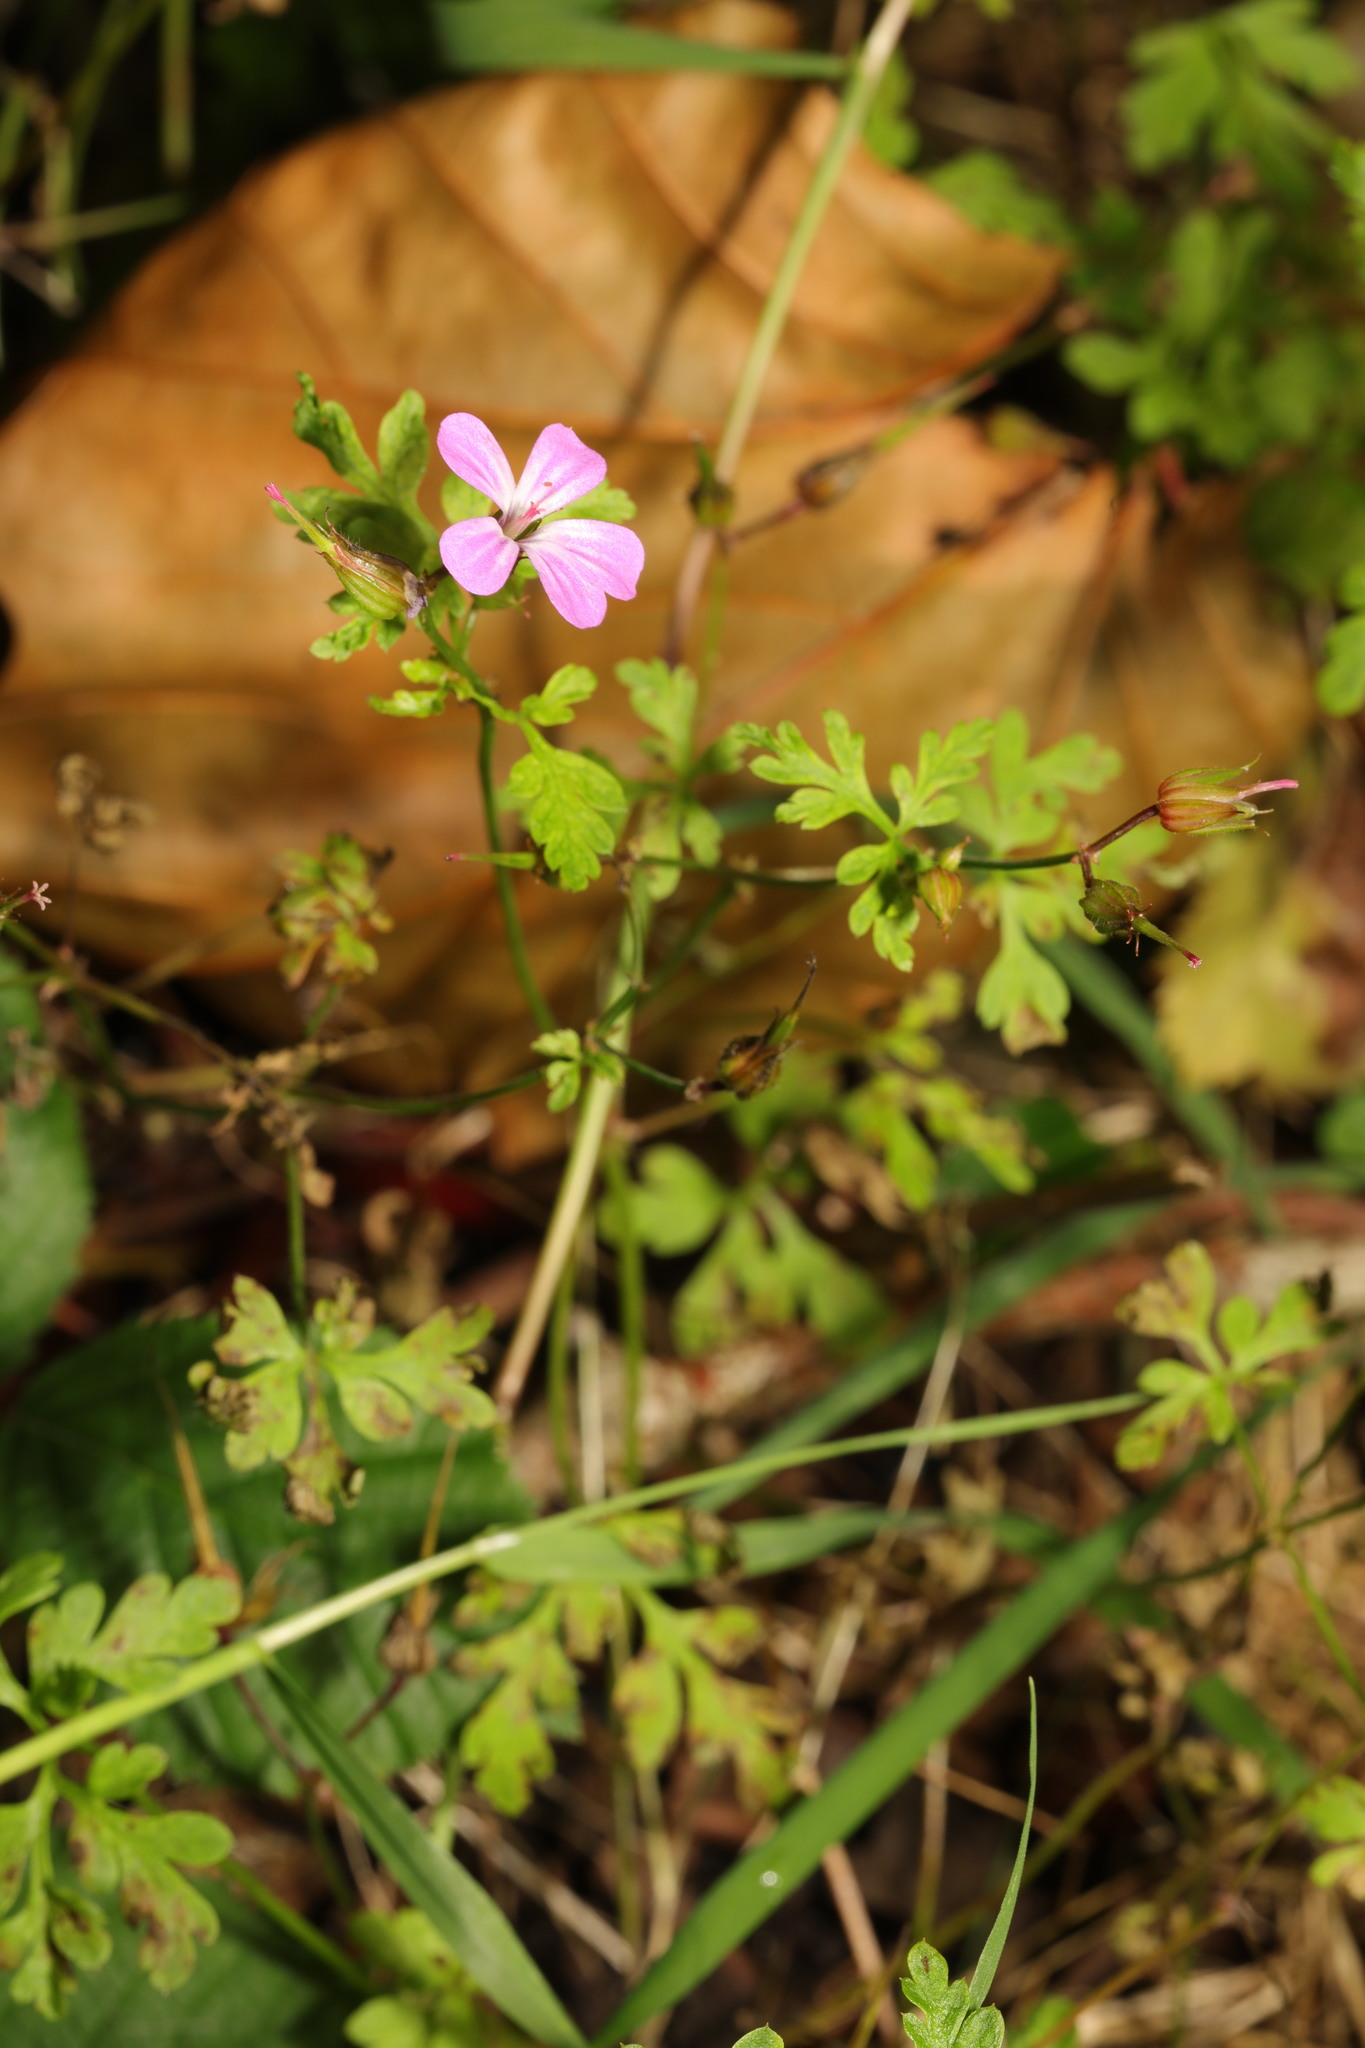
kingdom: Plantae
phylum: Tracheophyta
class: Magnoliopsida
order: Geraniales
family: Geraniaceae
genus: Geranium
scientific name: Geranium robertianum
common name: Herb-robert
